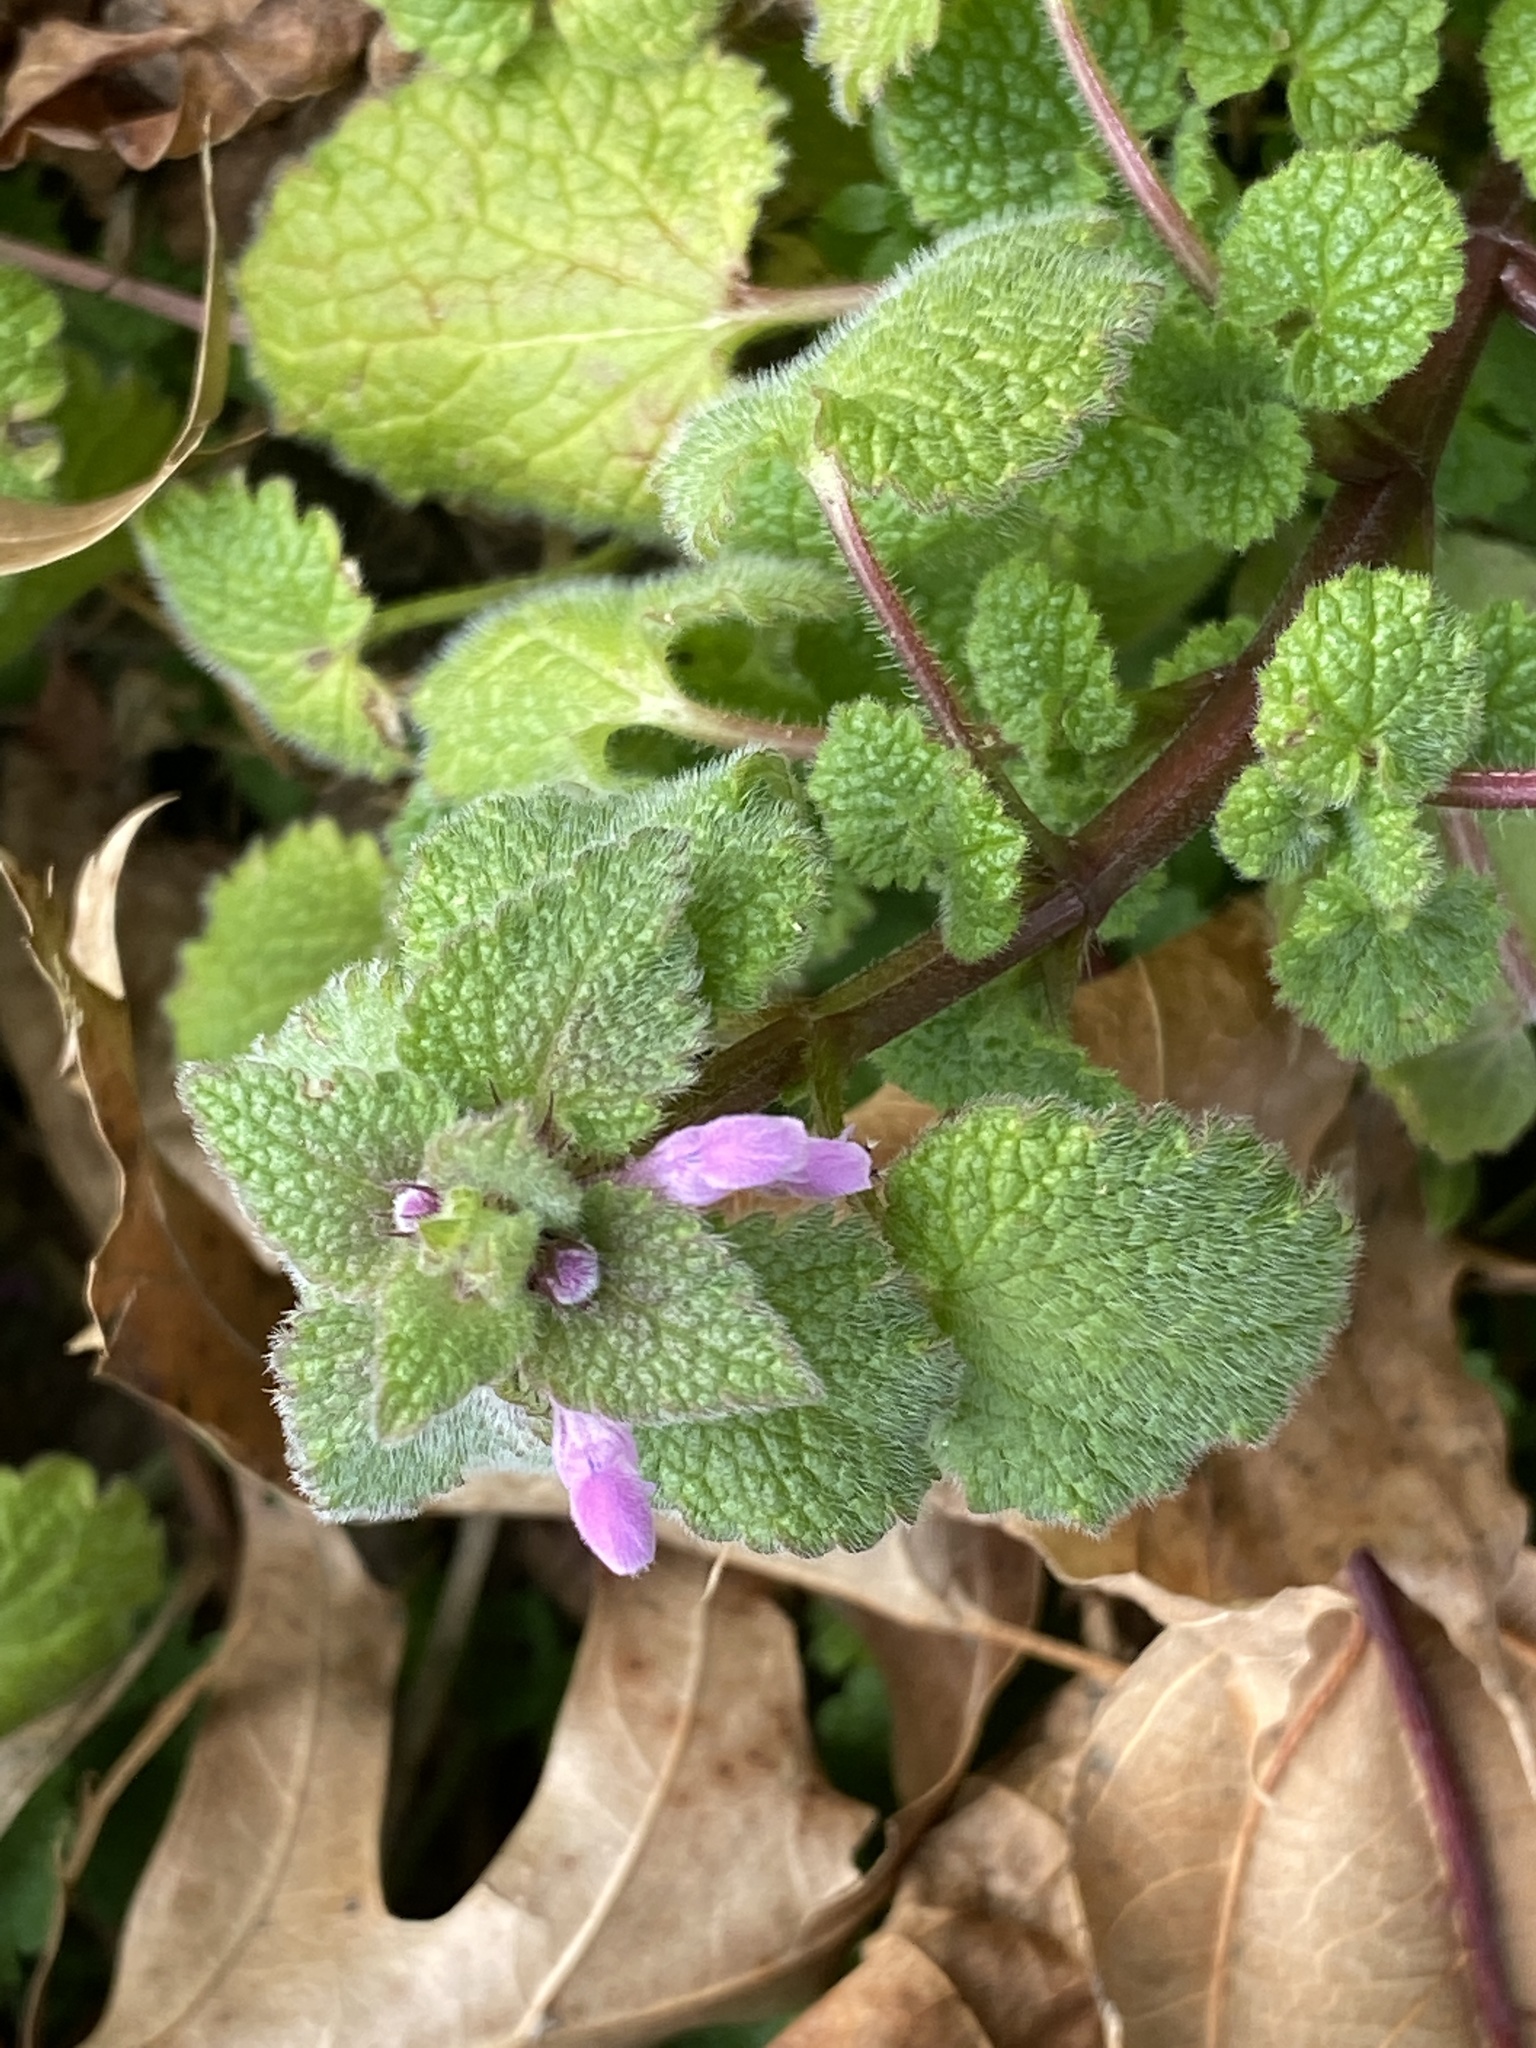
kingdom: Plantae
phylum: Tracheophyta
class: Magnoliopsida
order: Lamiales
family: Lamiaceae
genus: Lamium
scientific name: Lamium purpureum
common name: Red dead-nettle
